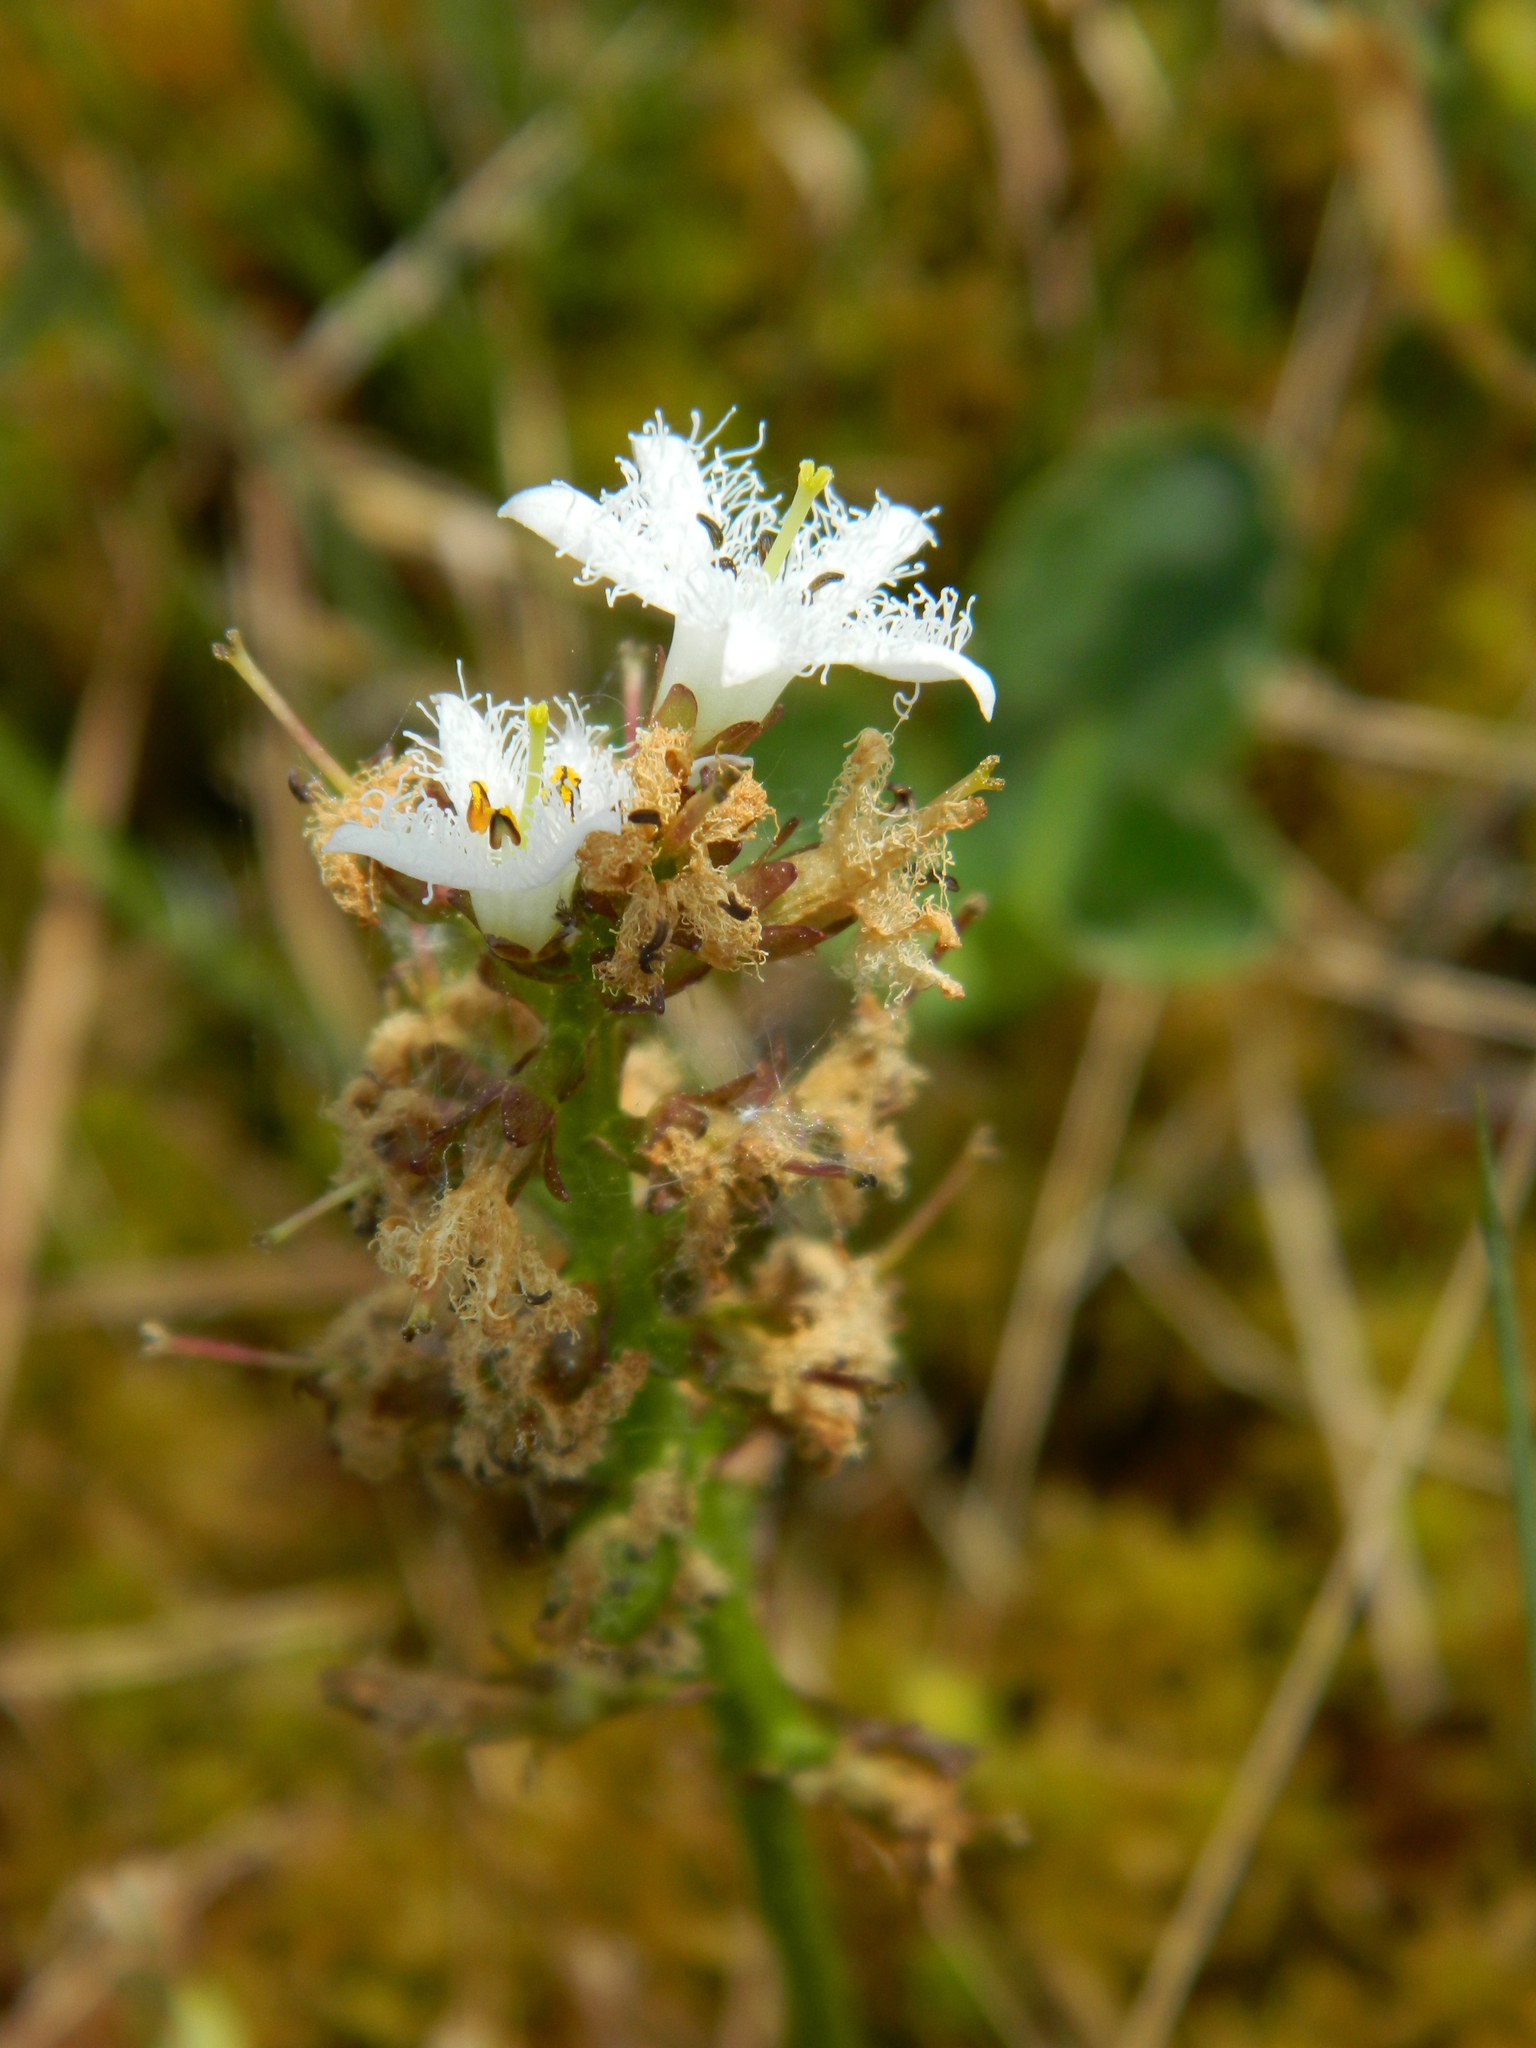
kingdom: Plantae
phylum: Tracheophyta
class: Magnoliopsida
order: Asterales
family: Menyanthaceae
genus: Menyanthes
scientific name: Menyanthes trifoliata
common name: Bogbean
